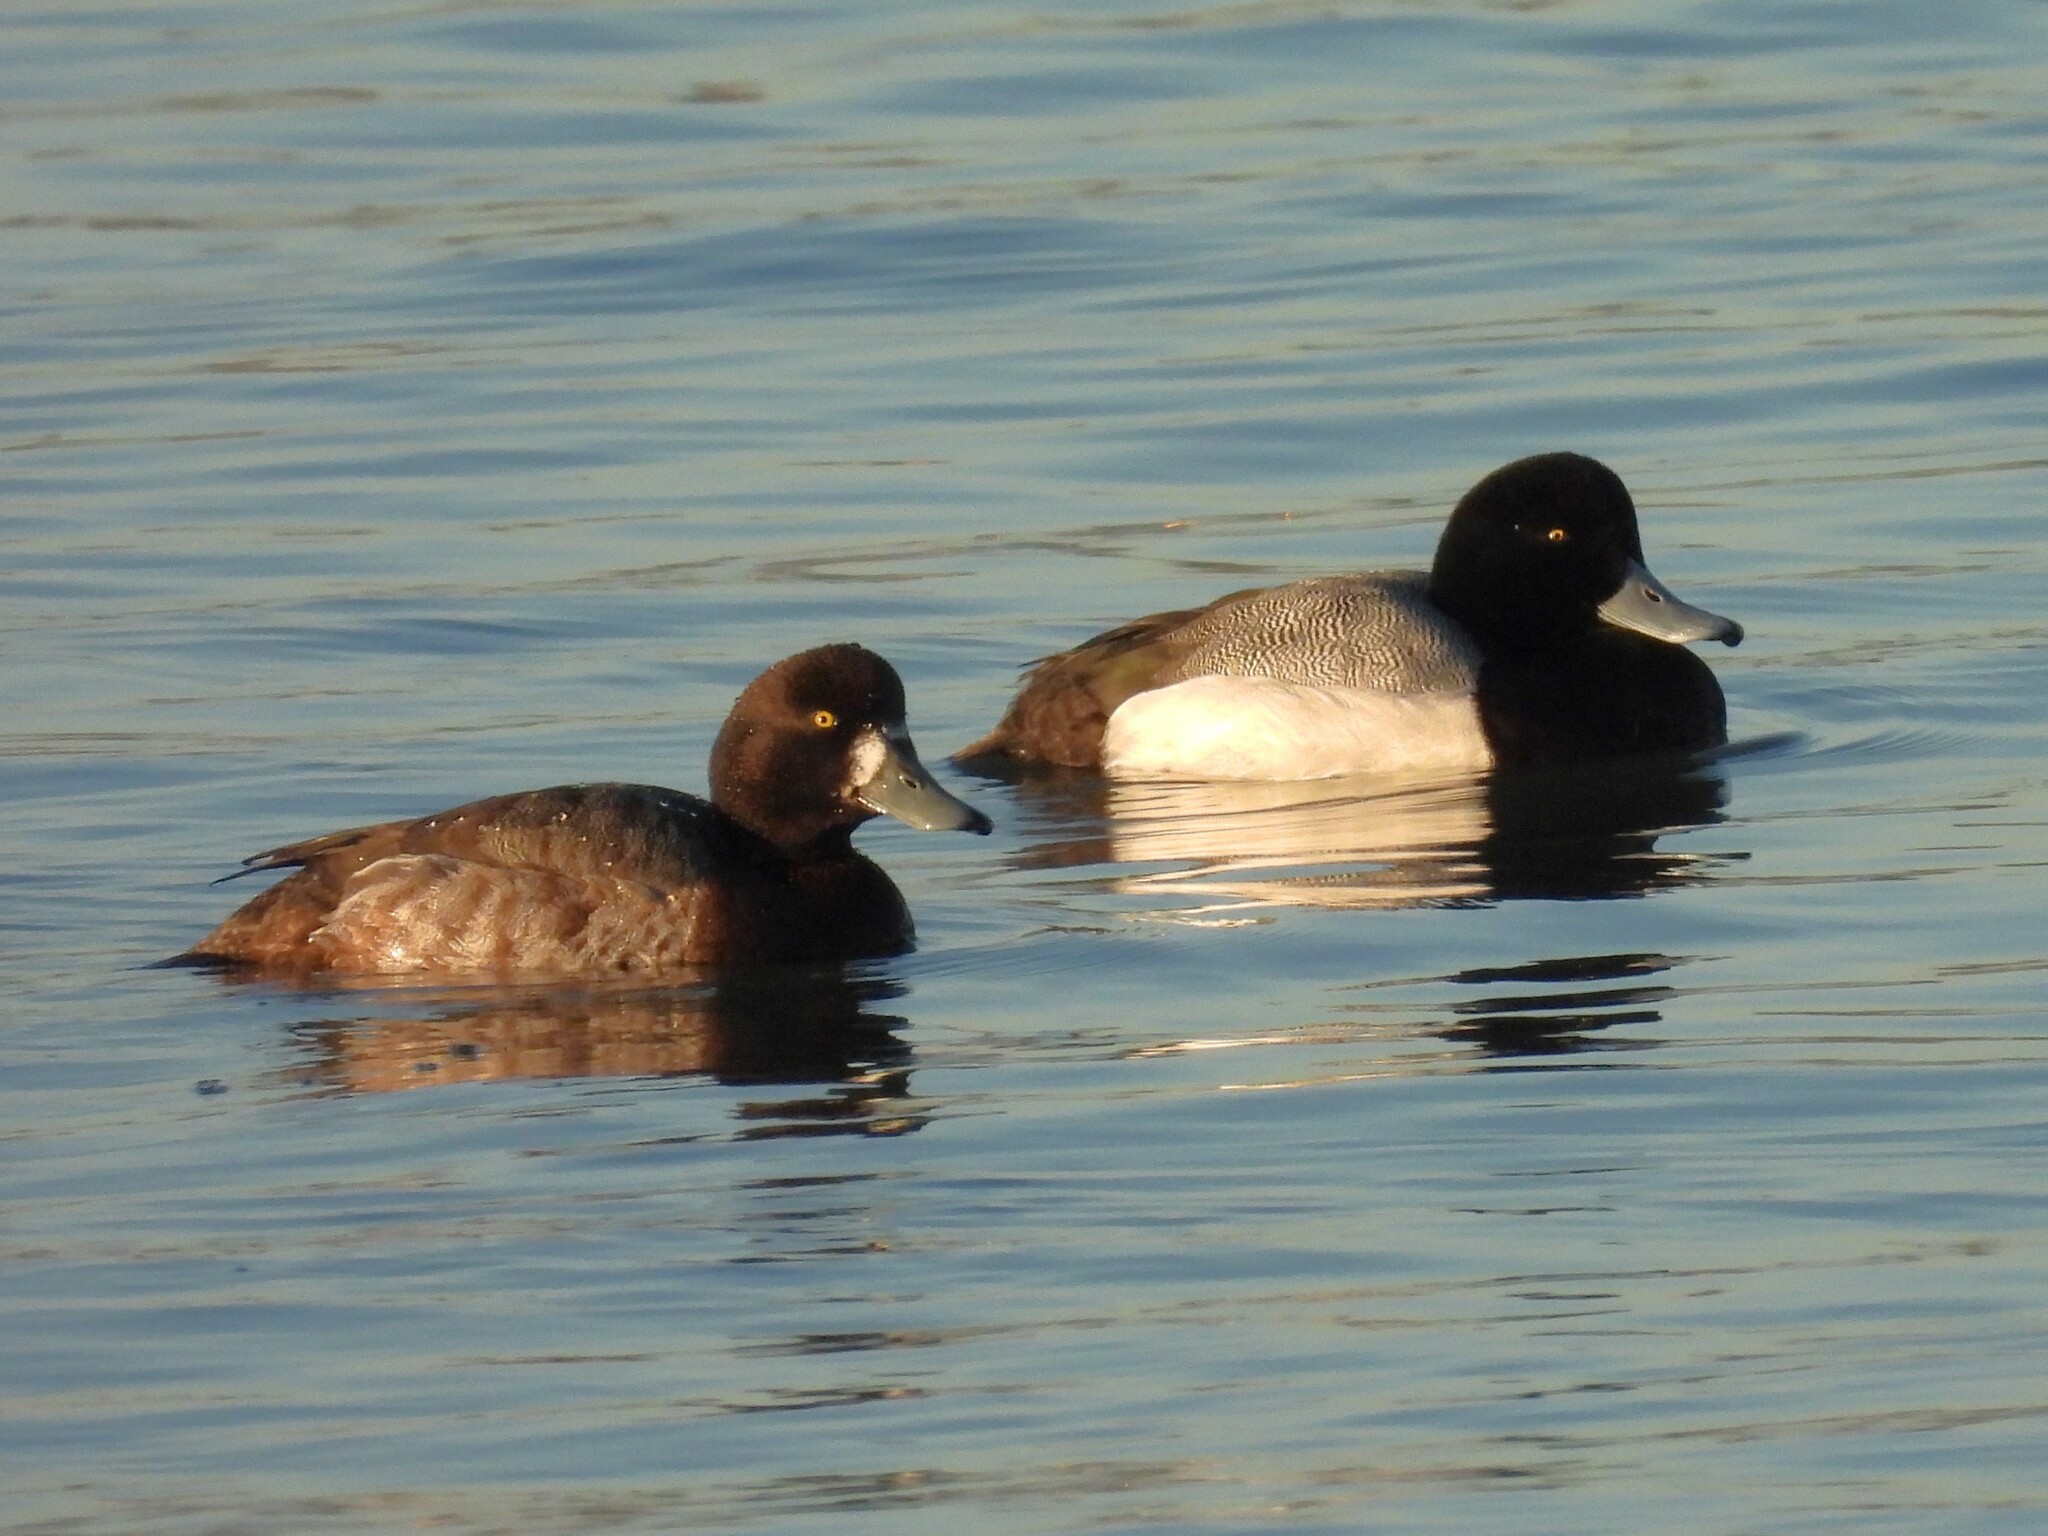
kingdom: Animalia
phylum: Chordata
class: Aves
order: Anseriformes
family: Anatidae
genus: Aythya
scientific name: Aythya marila
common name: Greater scaup
